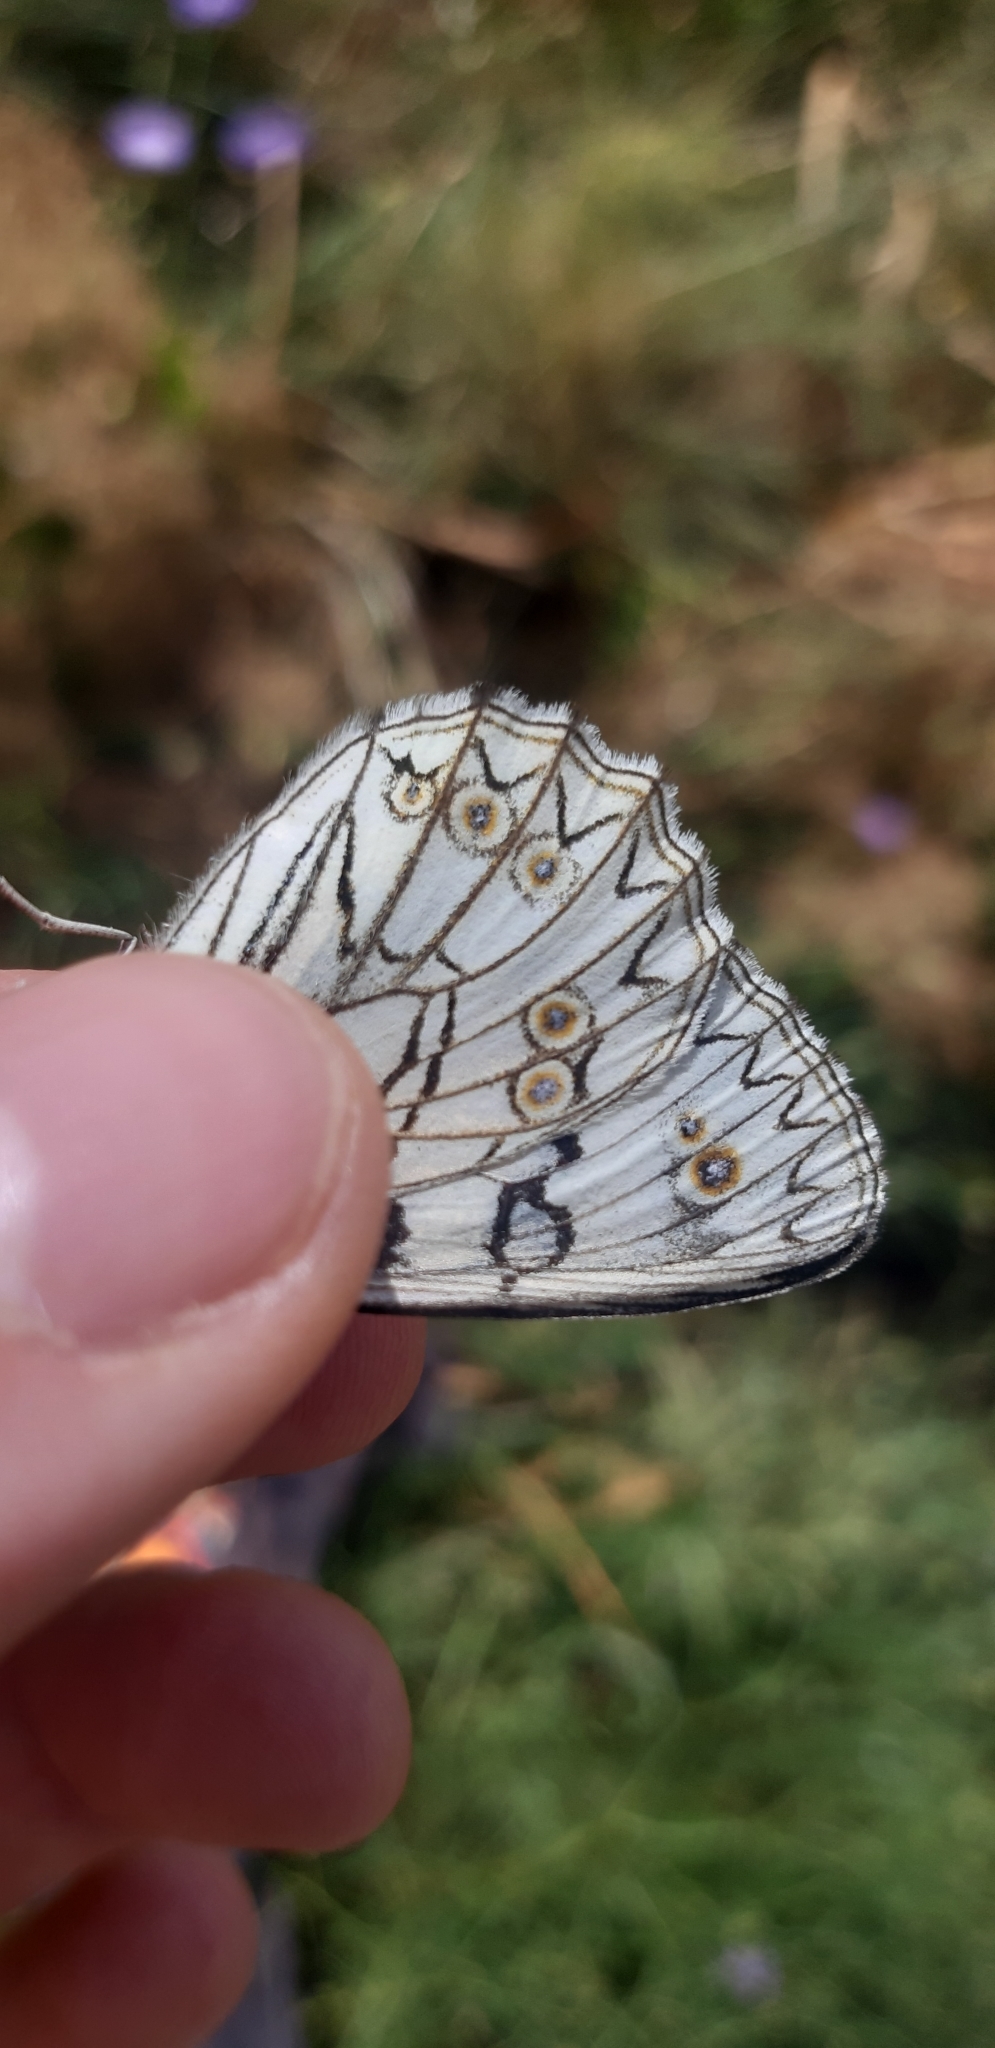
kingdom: Animalia
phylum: Arthropoda
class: Insecta
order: Lepidoptera
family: Nymphalidae
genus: Melanargia
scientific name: Melanargia arge
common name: Italian marbled white
